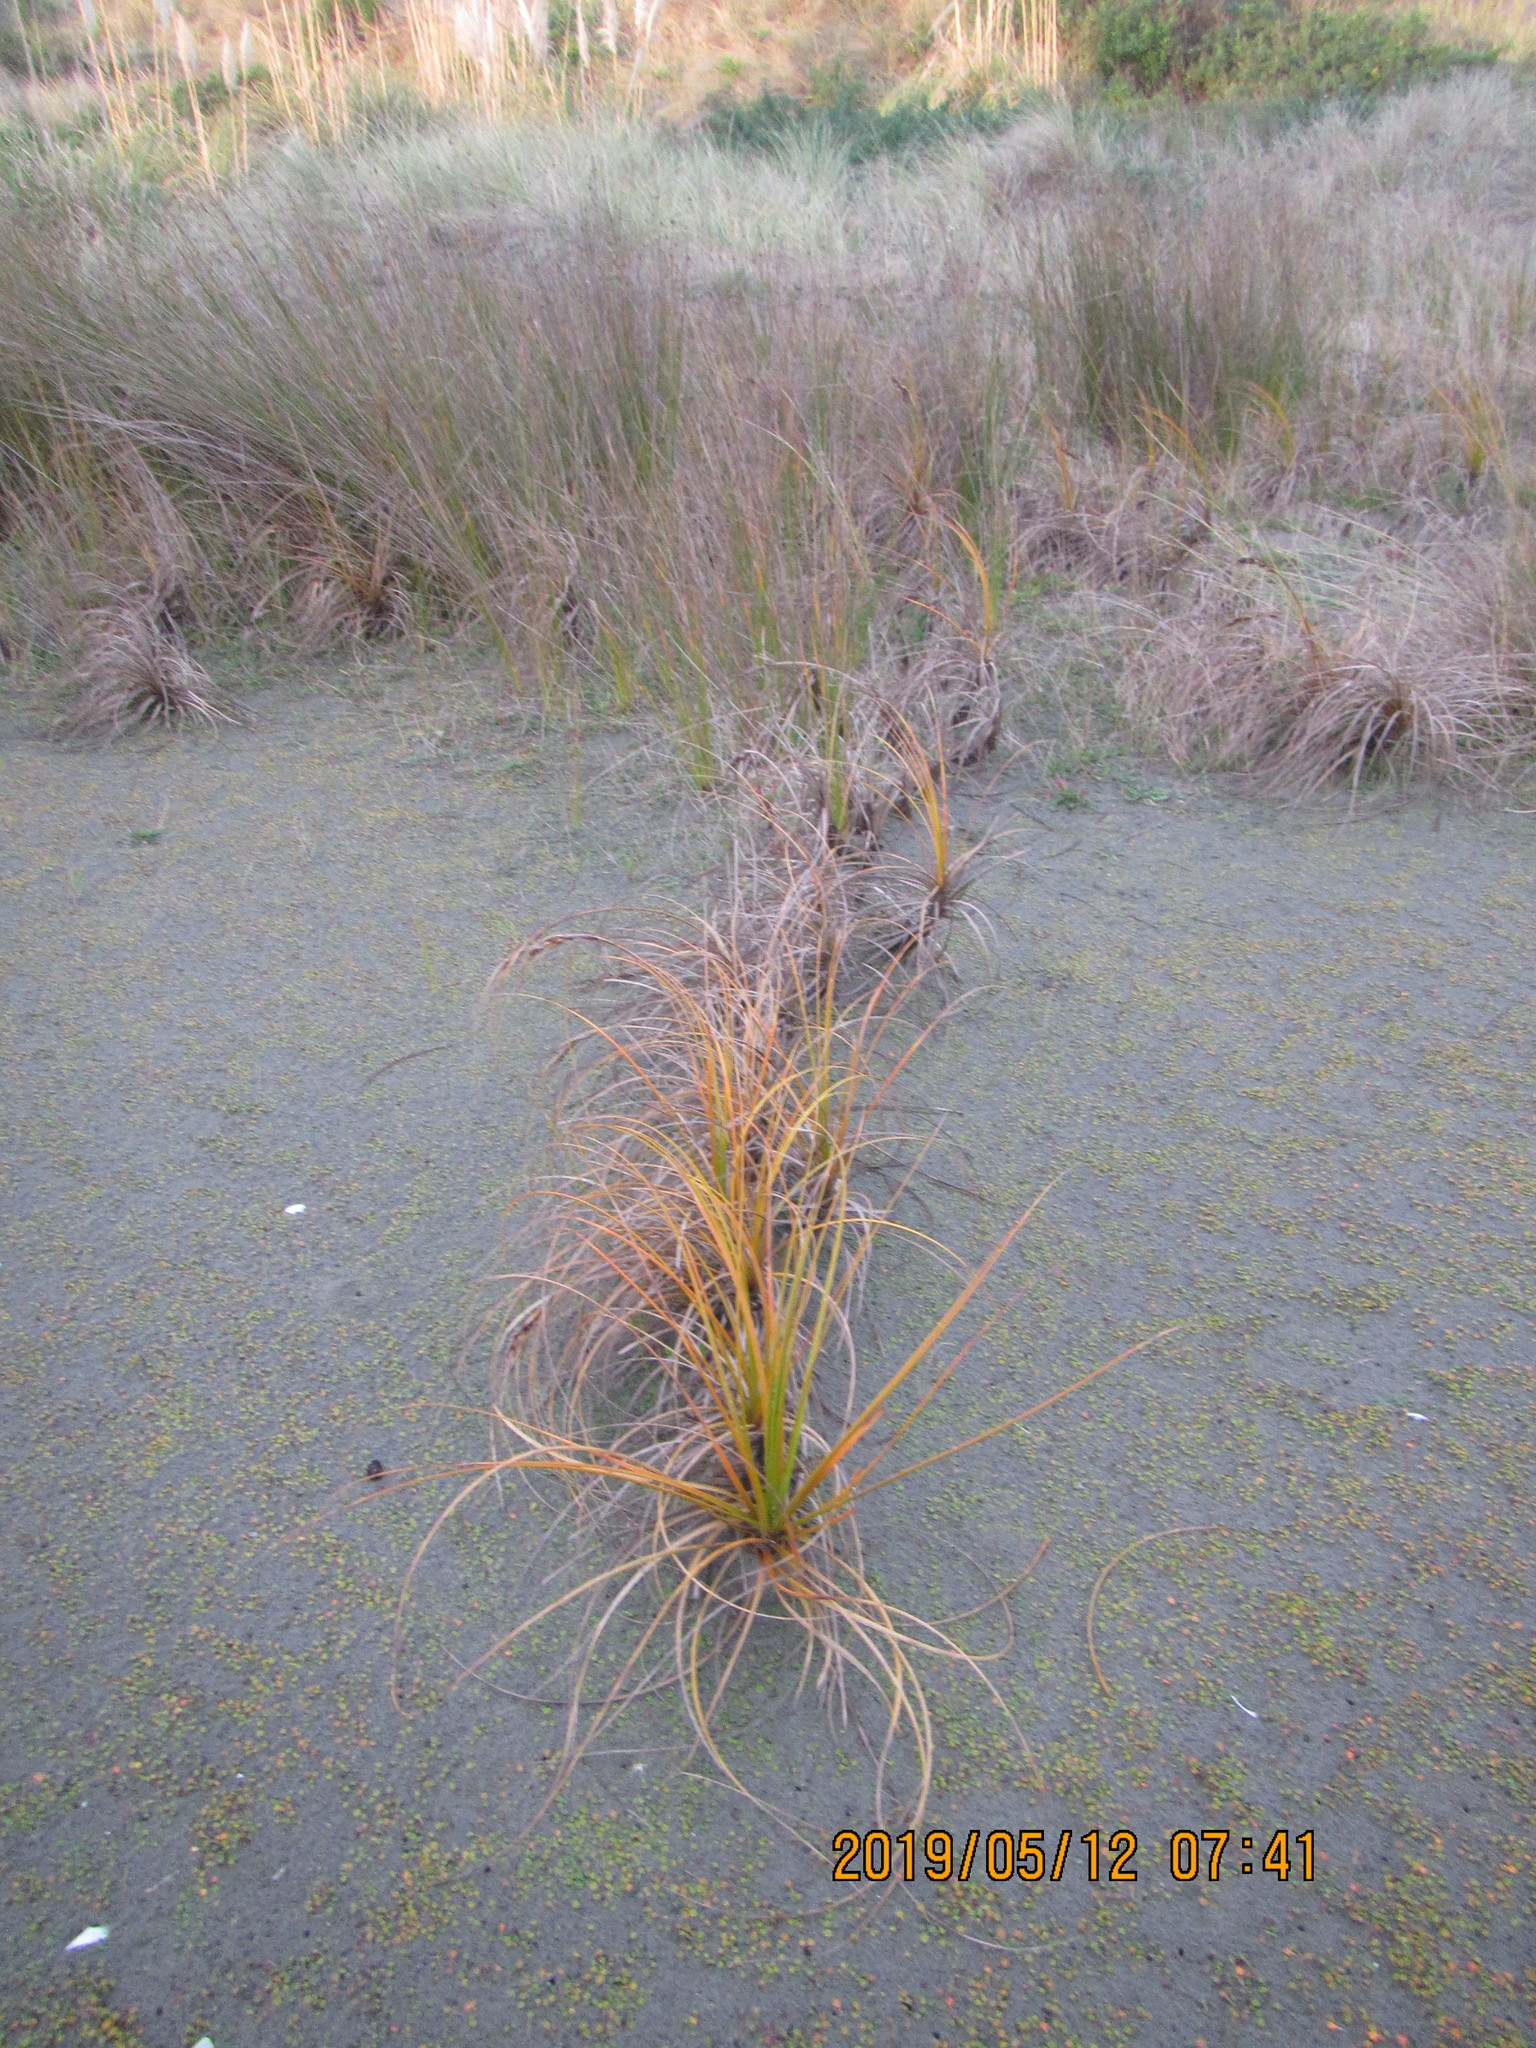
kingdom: Plantae
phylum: Tracheophyta
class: Liliopsida
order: Poales
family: Cyperaceae
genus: Ficinia
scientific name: Ficinia spiralis
